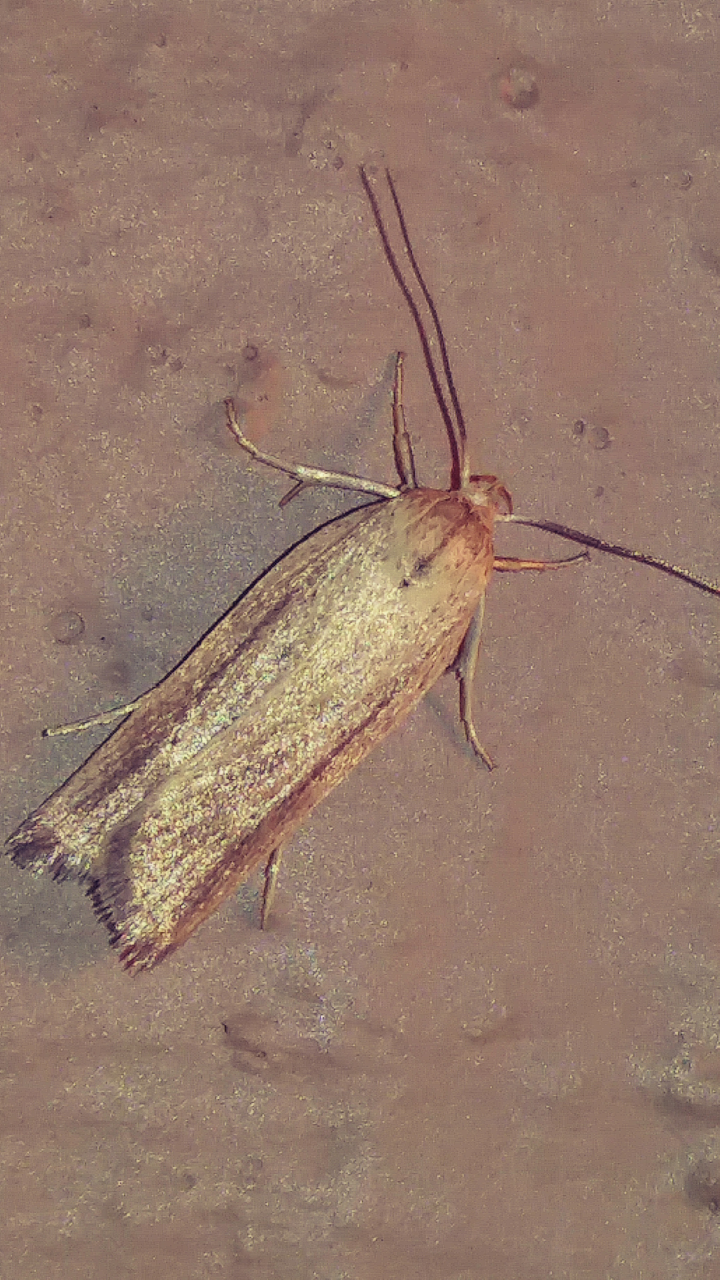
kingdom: Animalia
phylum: Arthropoda
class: Insecta
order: Lepidoptera
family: Depressariidae
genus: Gonioterma
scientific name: Gonioterma mistrella
